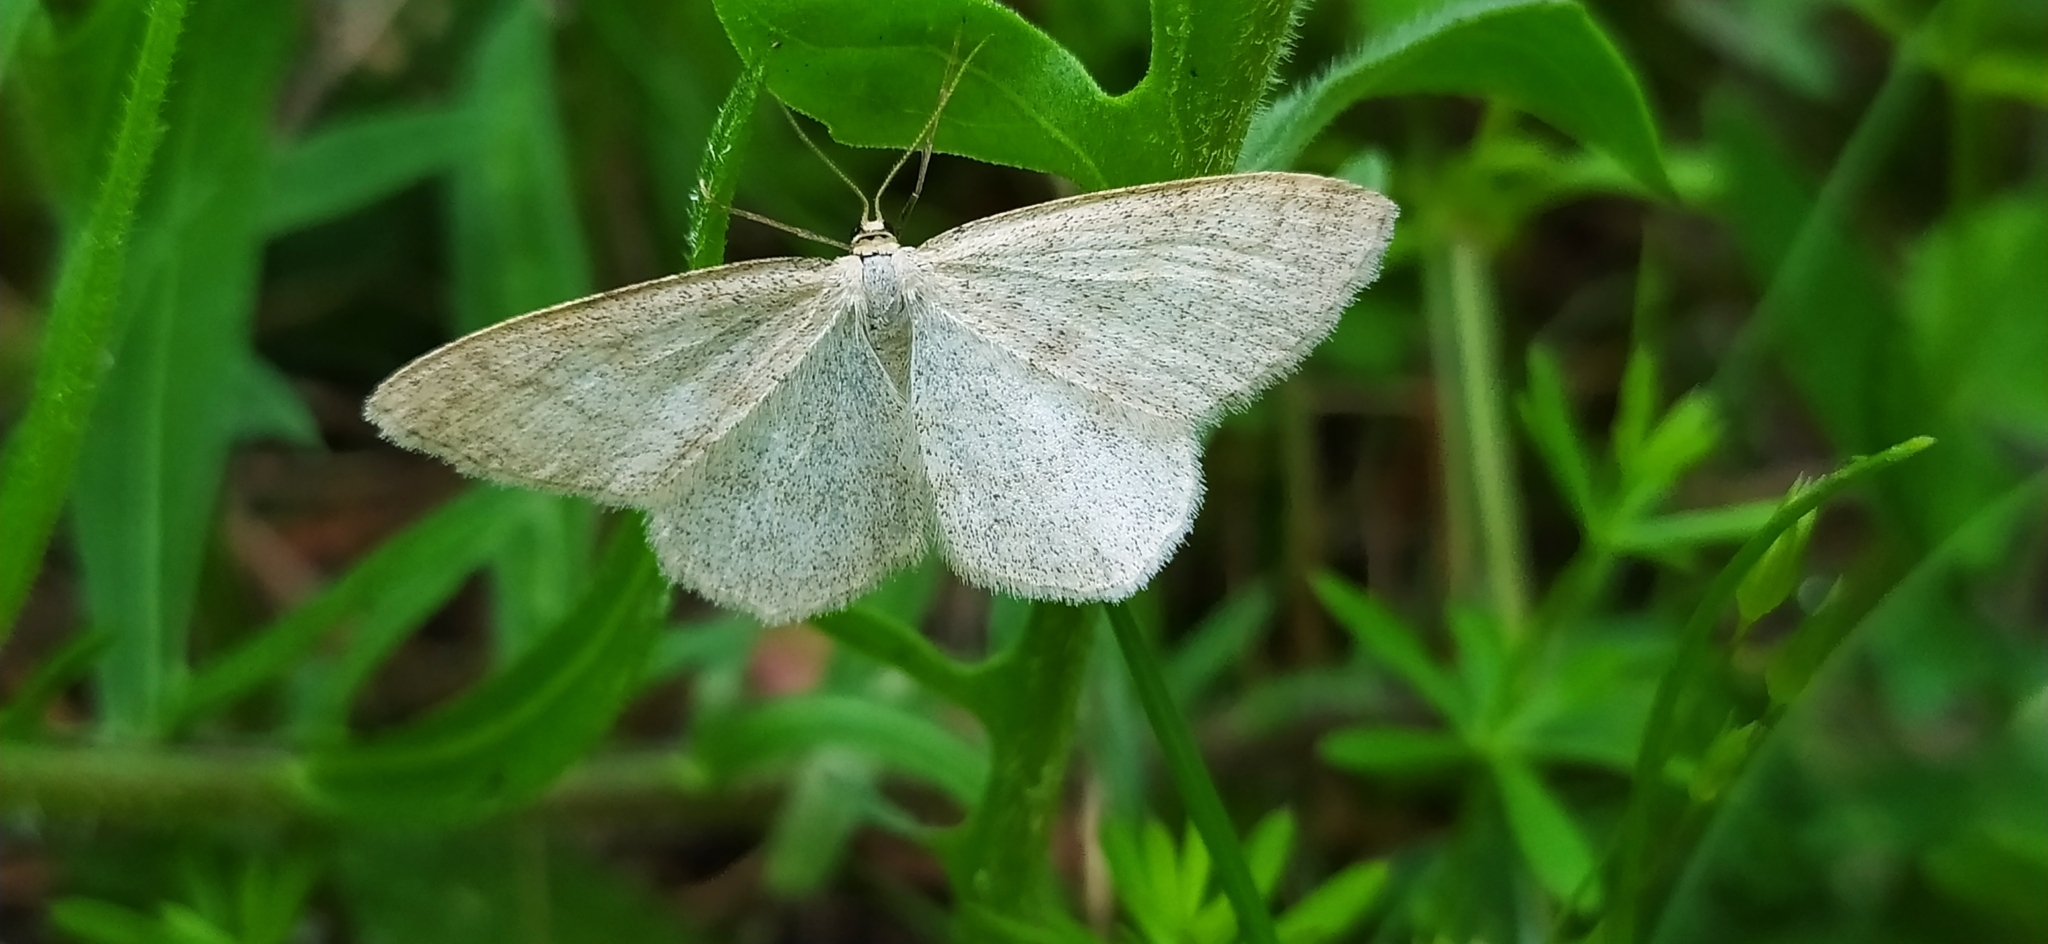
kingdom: Animalia
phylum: Arthropoda
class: Insecta
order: Lepidoptera
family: Geometridae
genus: Scopula
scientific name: Scopula ternata
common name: Smoky wave
